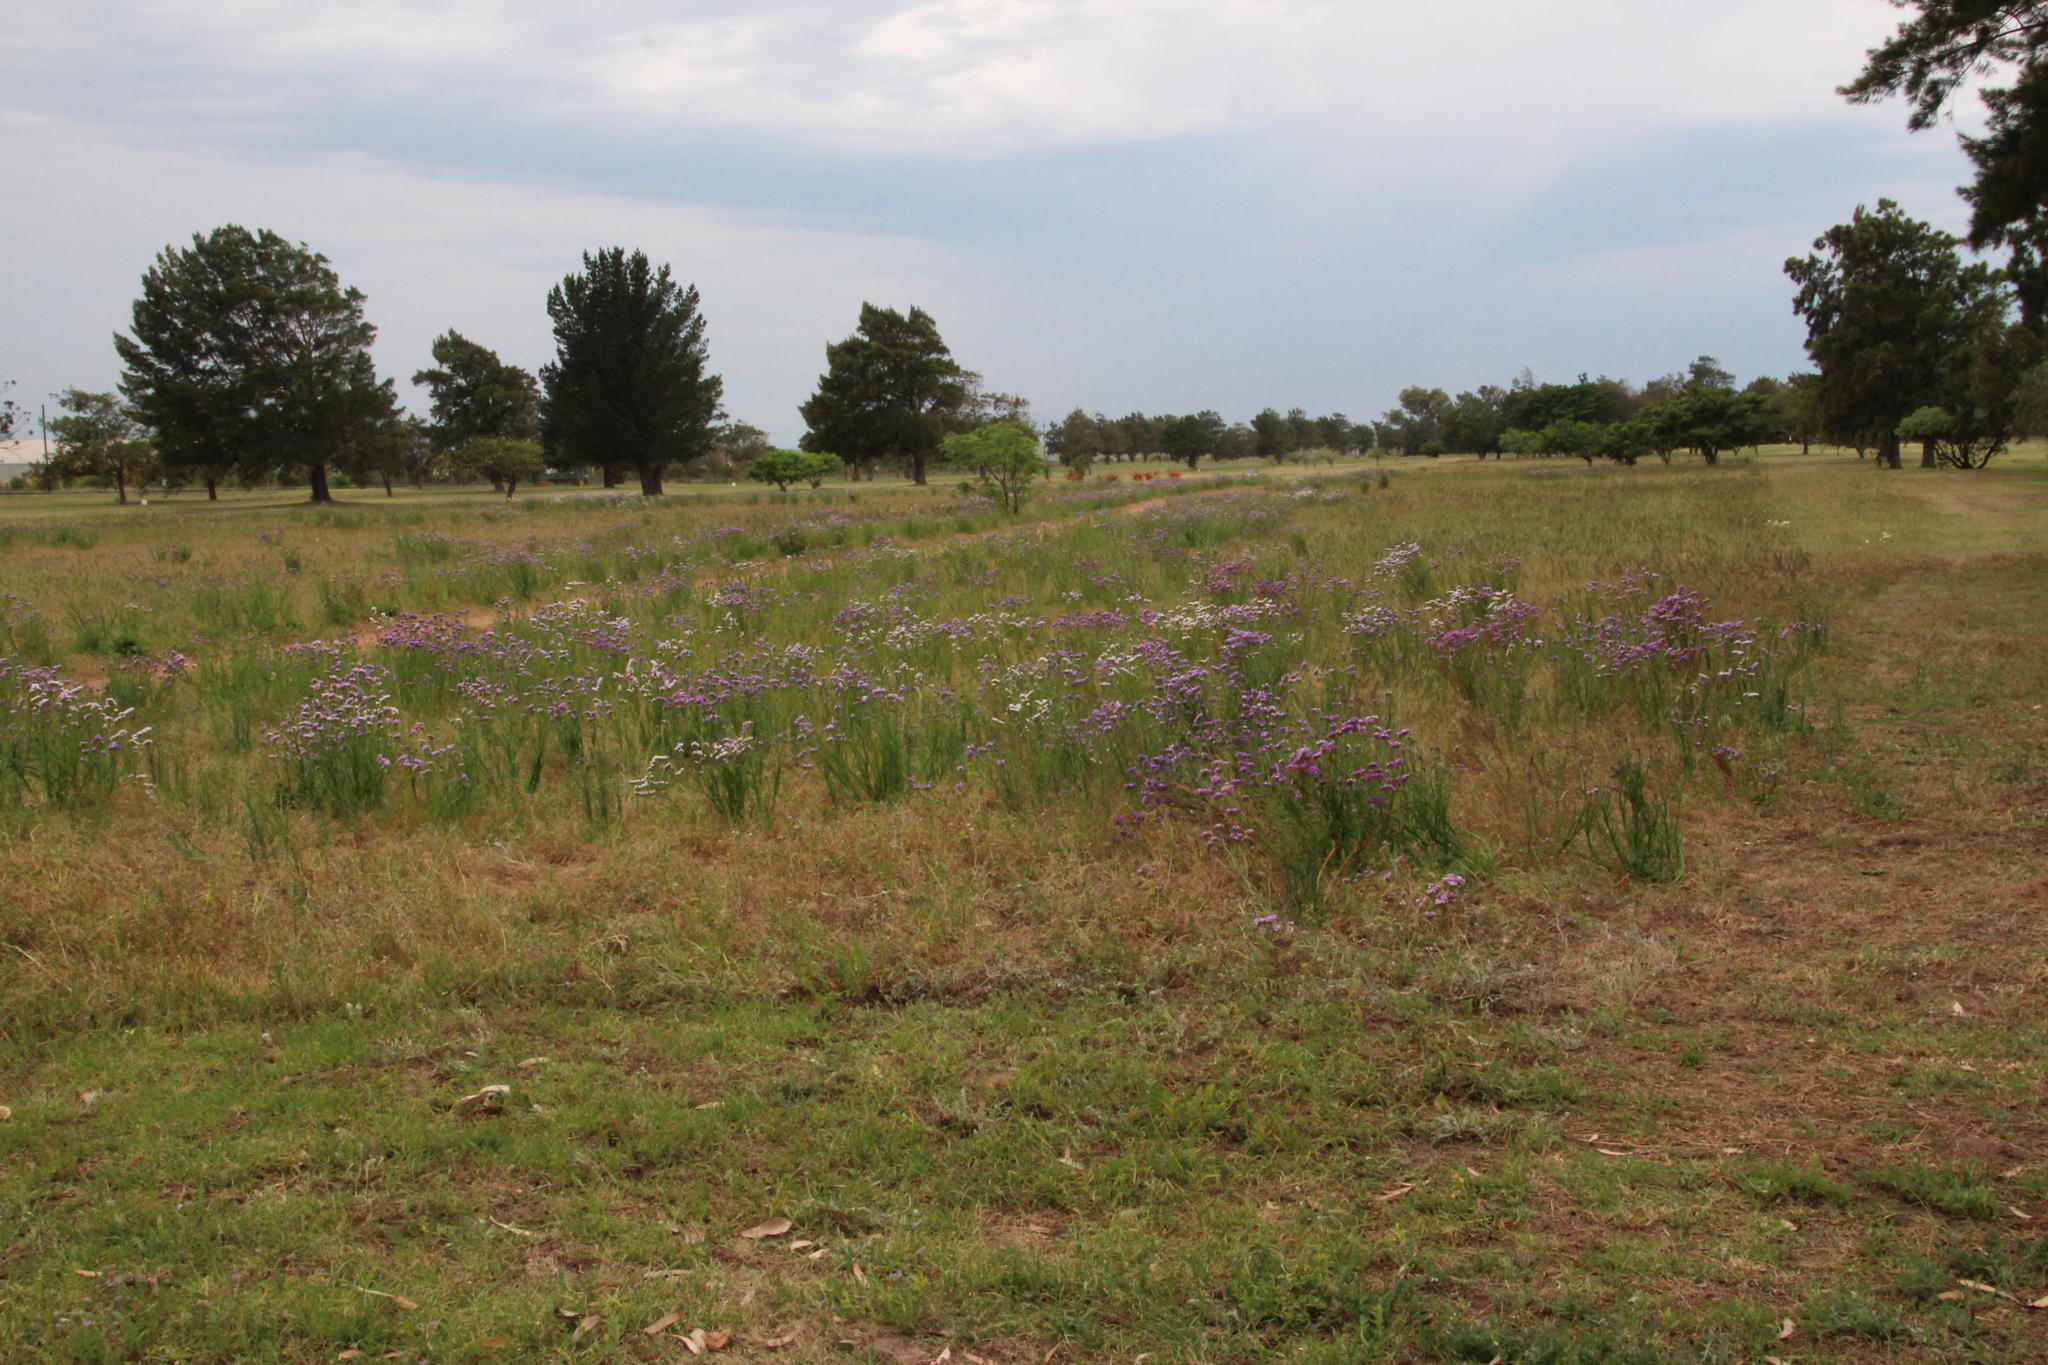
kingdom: Plantae
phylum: Tracheophyta
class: Magnoliopsida
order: Caryophyllales
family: Plumbaginaceae
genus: Limonium
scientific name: Limonium sinuatum
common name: Statice
